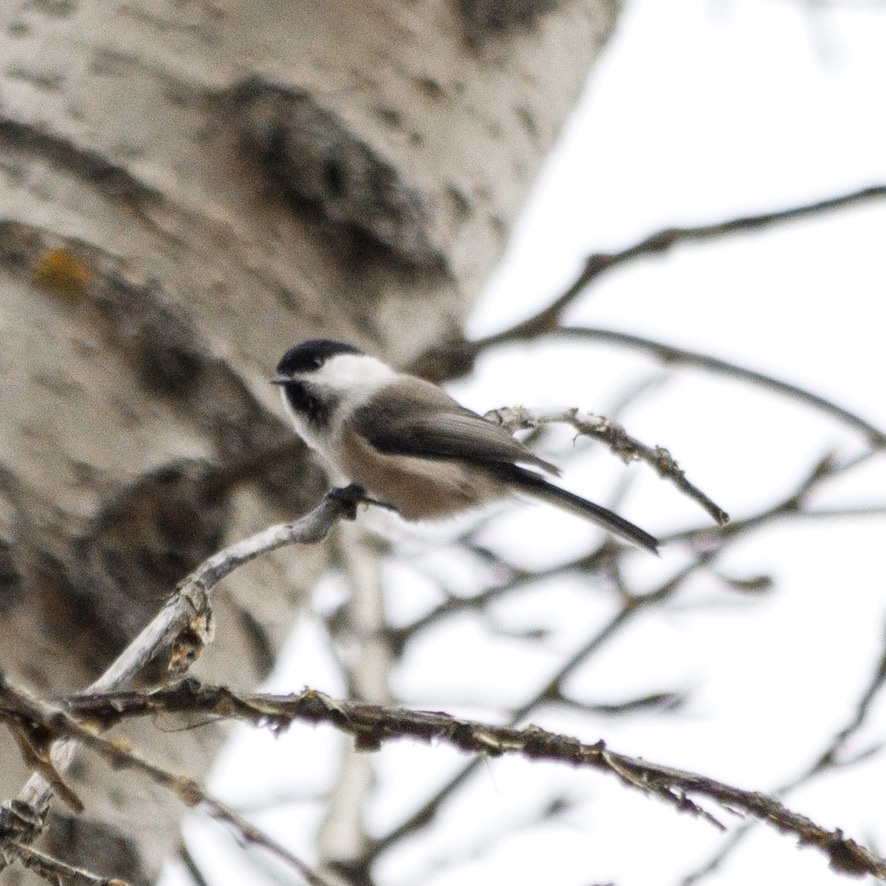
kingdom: Animalia
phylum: Chordata
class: Aves
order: Passeriformes
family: Paridae
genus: Poecile
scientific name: Poecile montanus
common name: Willow tit
